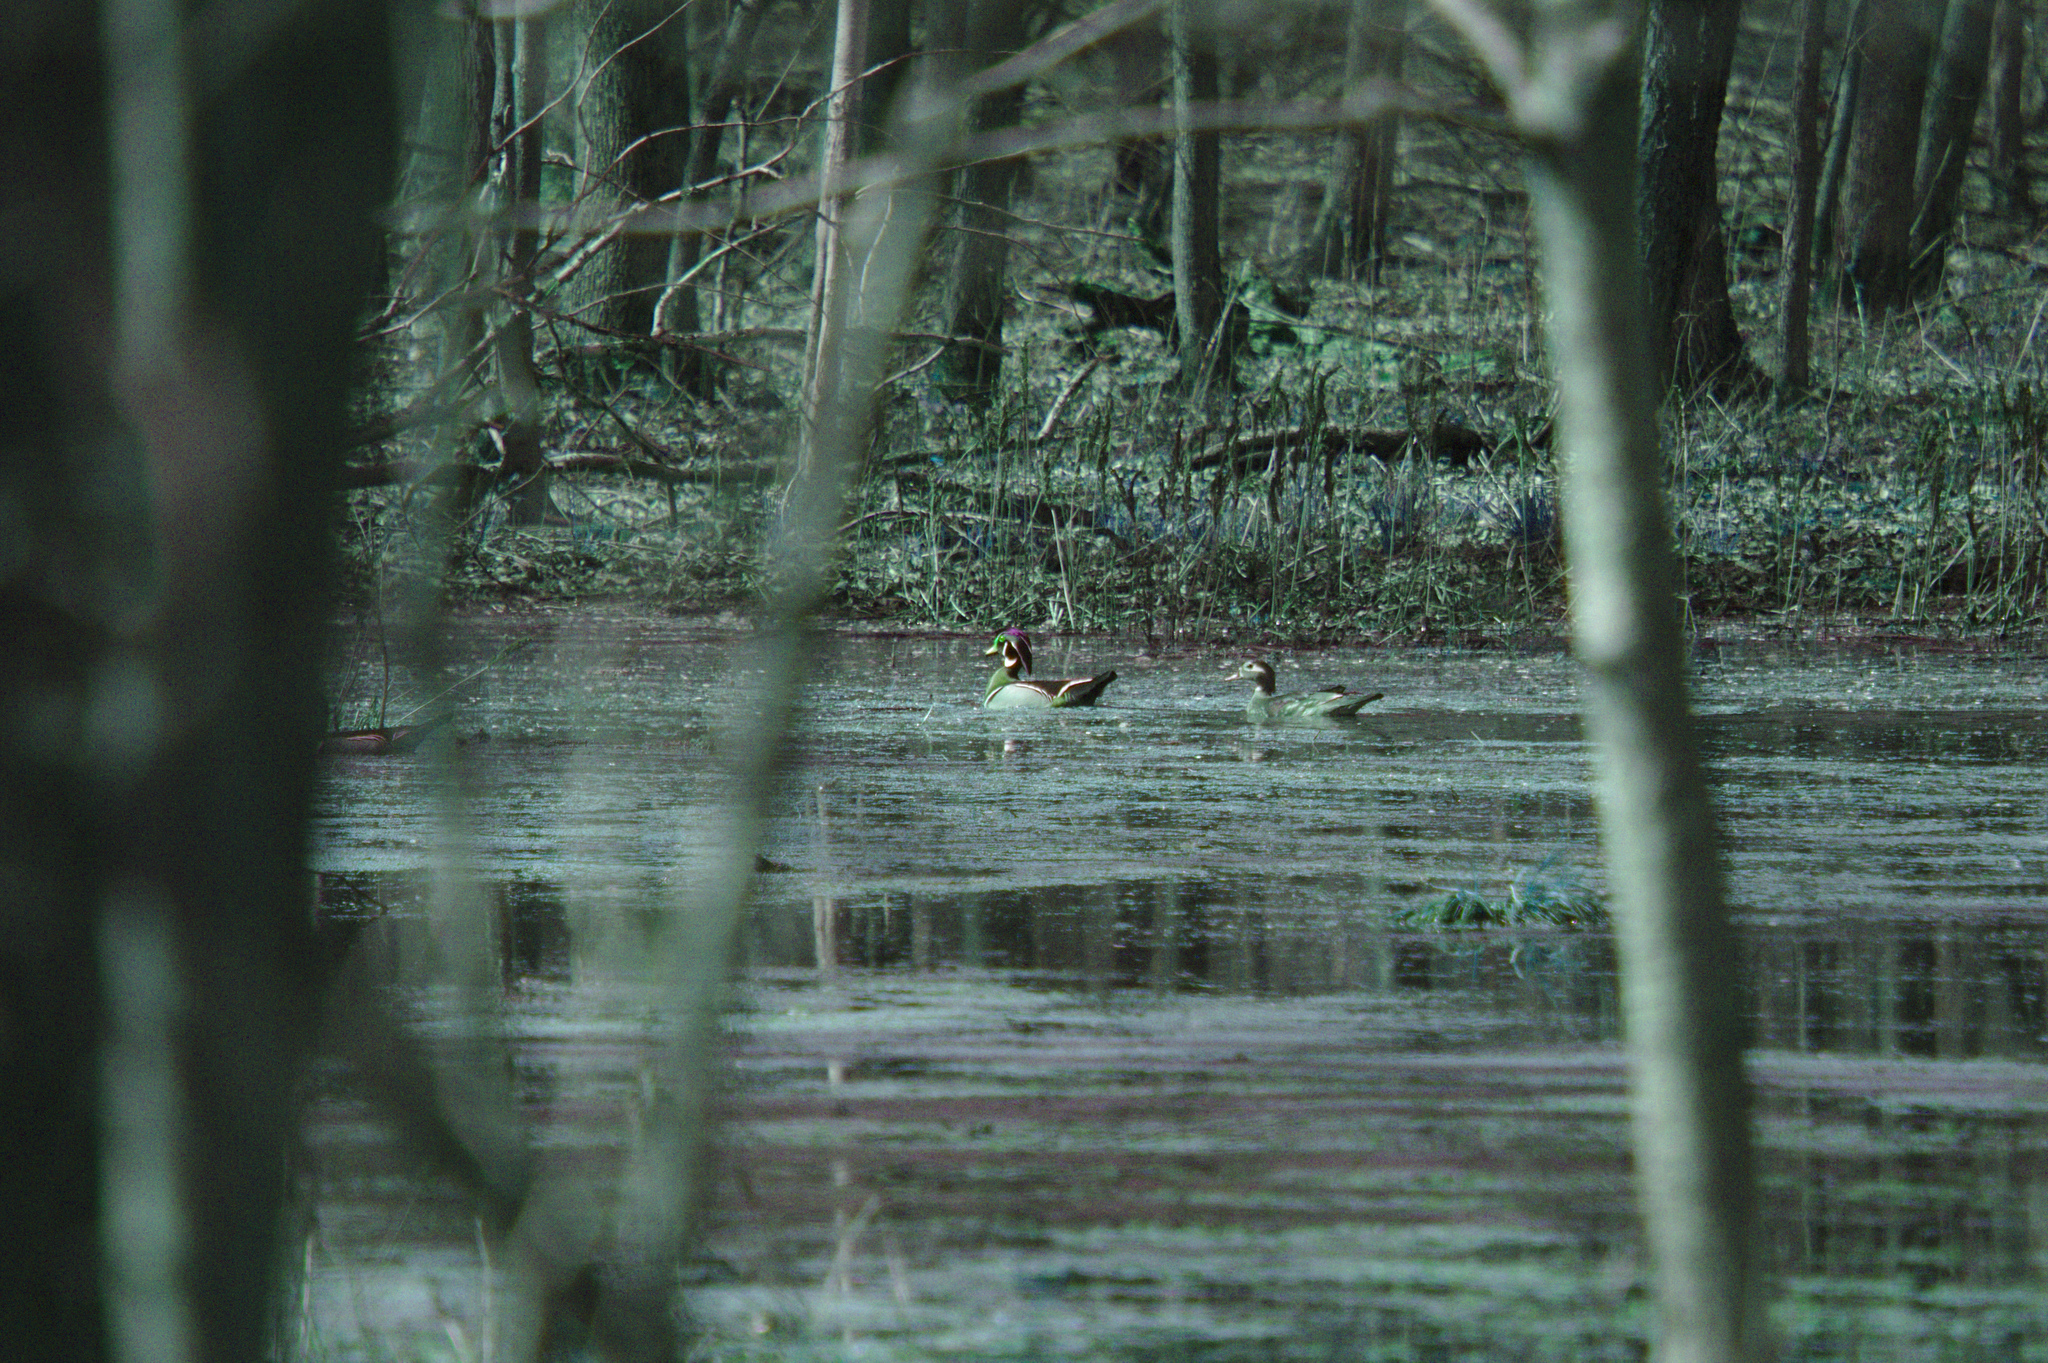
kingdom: Animalia
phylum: Chordata
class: Aves
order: Anseriformes
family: Anatidae
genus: Aix
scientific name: Aix sponsa
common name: Wood duck
